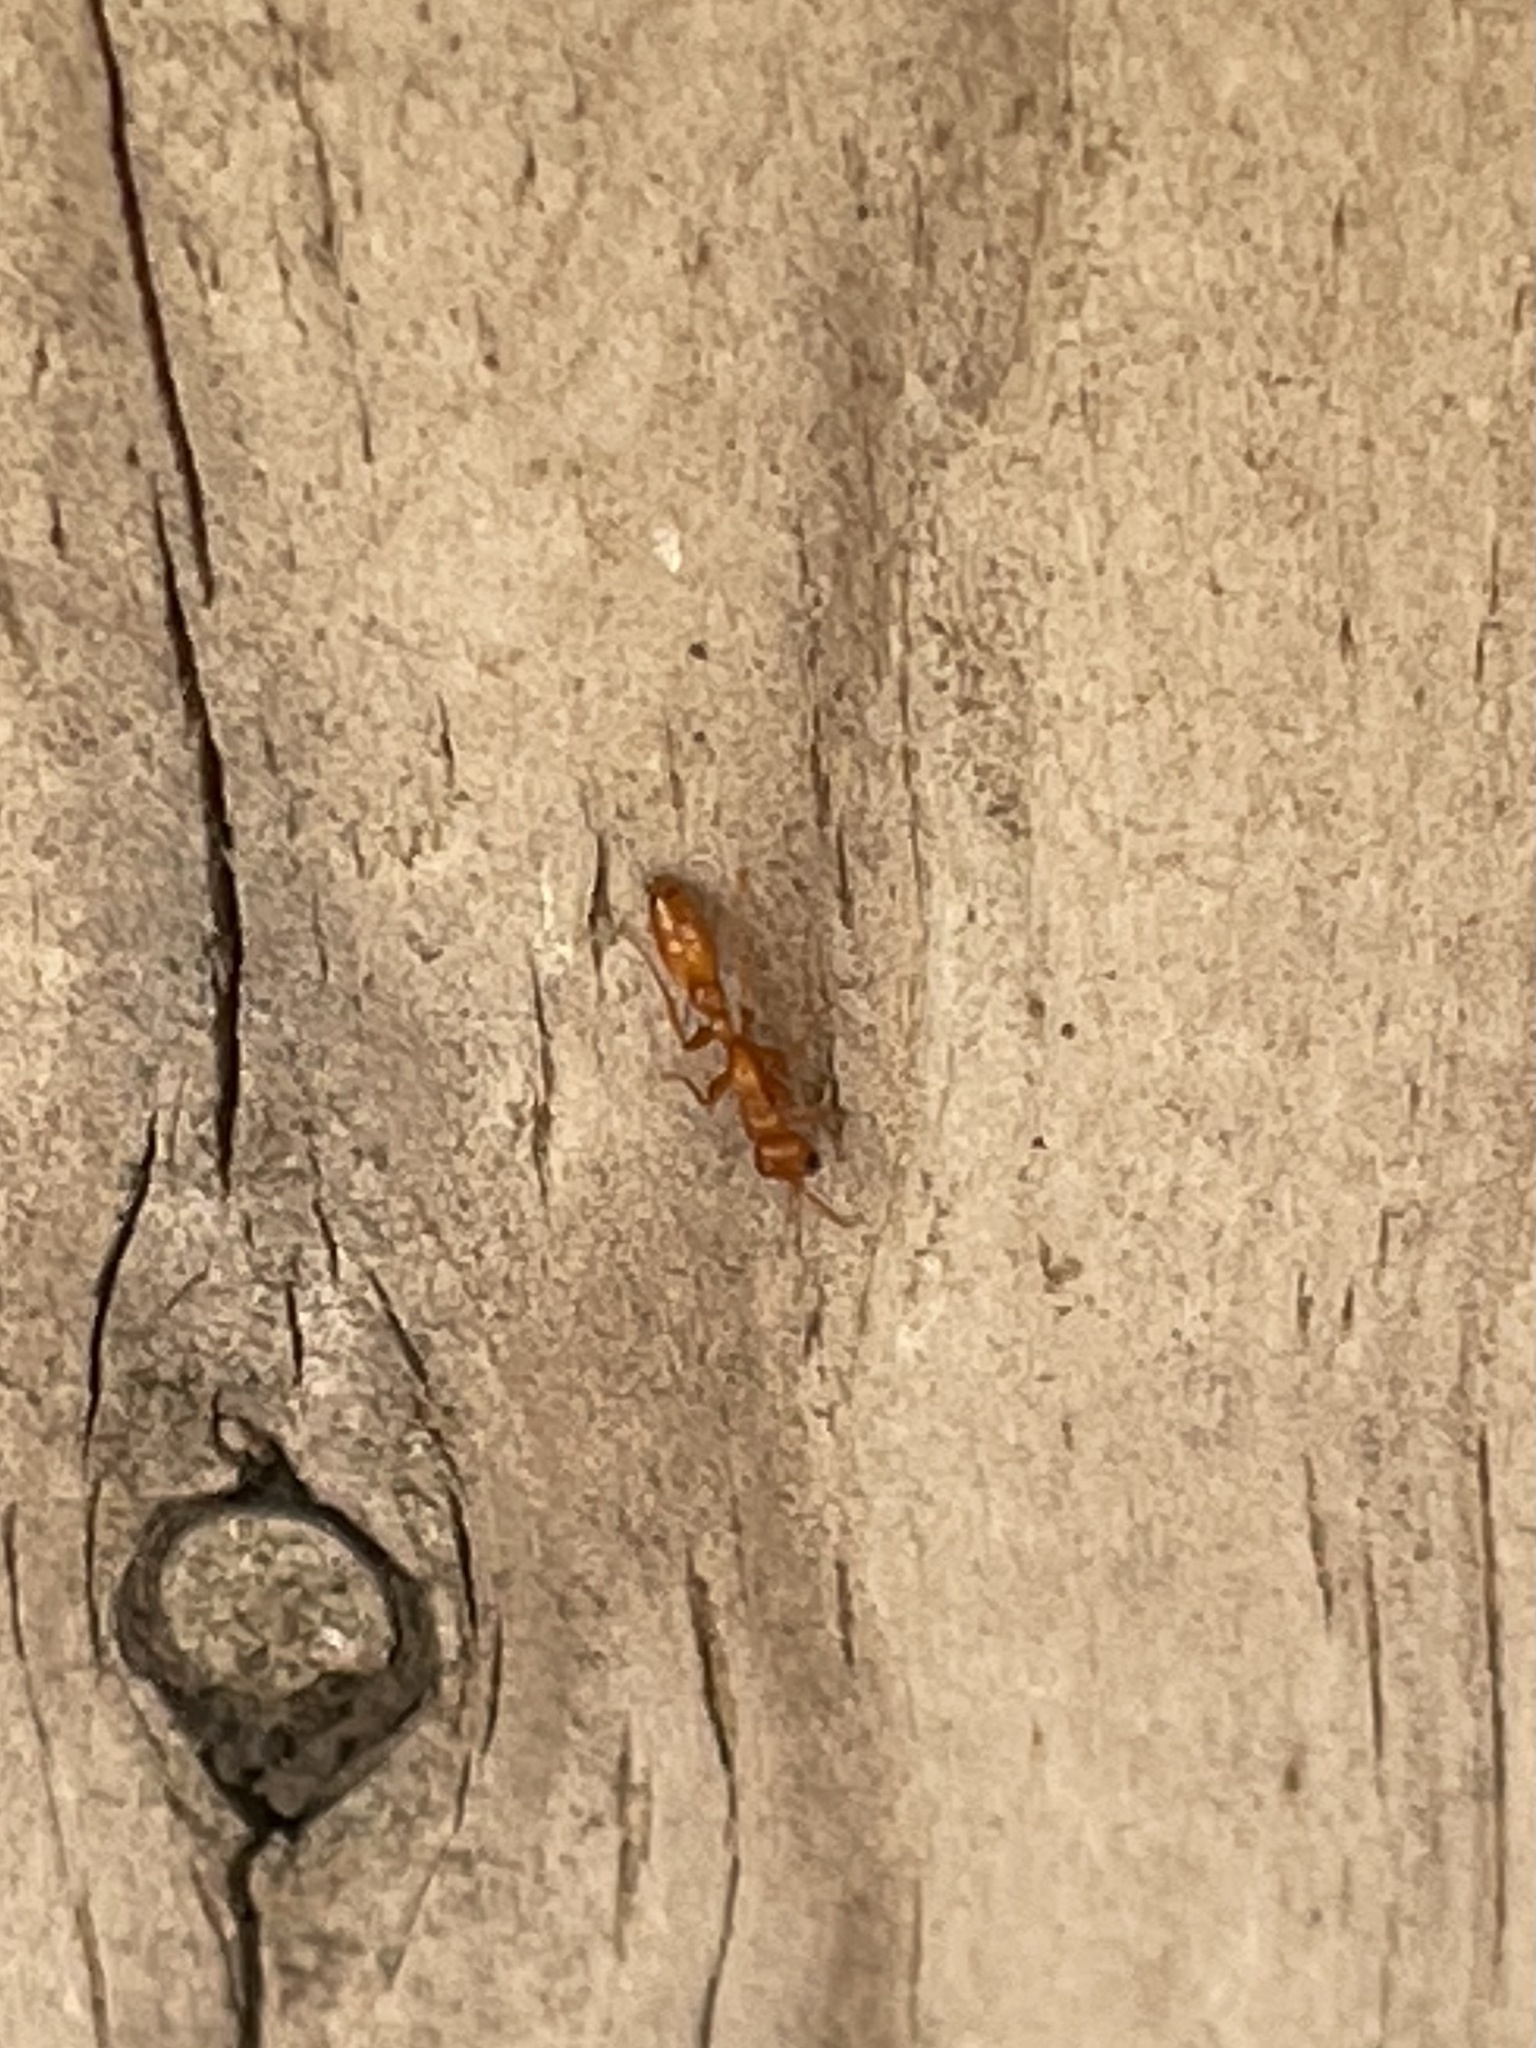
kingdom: Animalia
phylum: Arthropoda
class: Insecta
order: Hymenoptera
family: Formicidae
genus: Pseudomyrmex
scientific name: Pseudomyrmex apache
